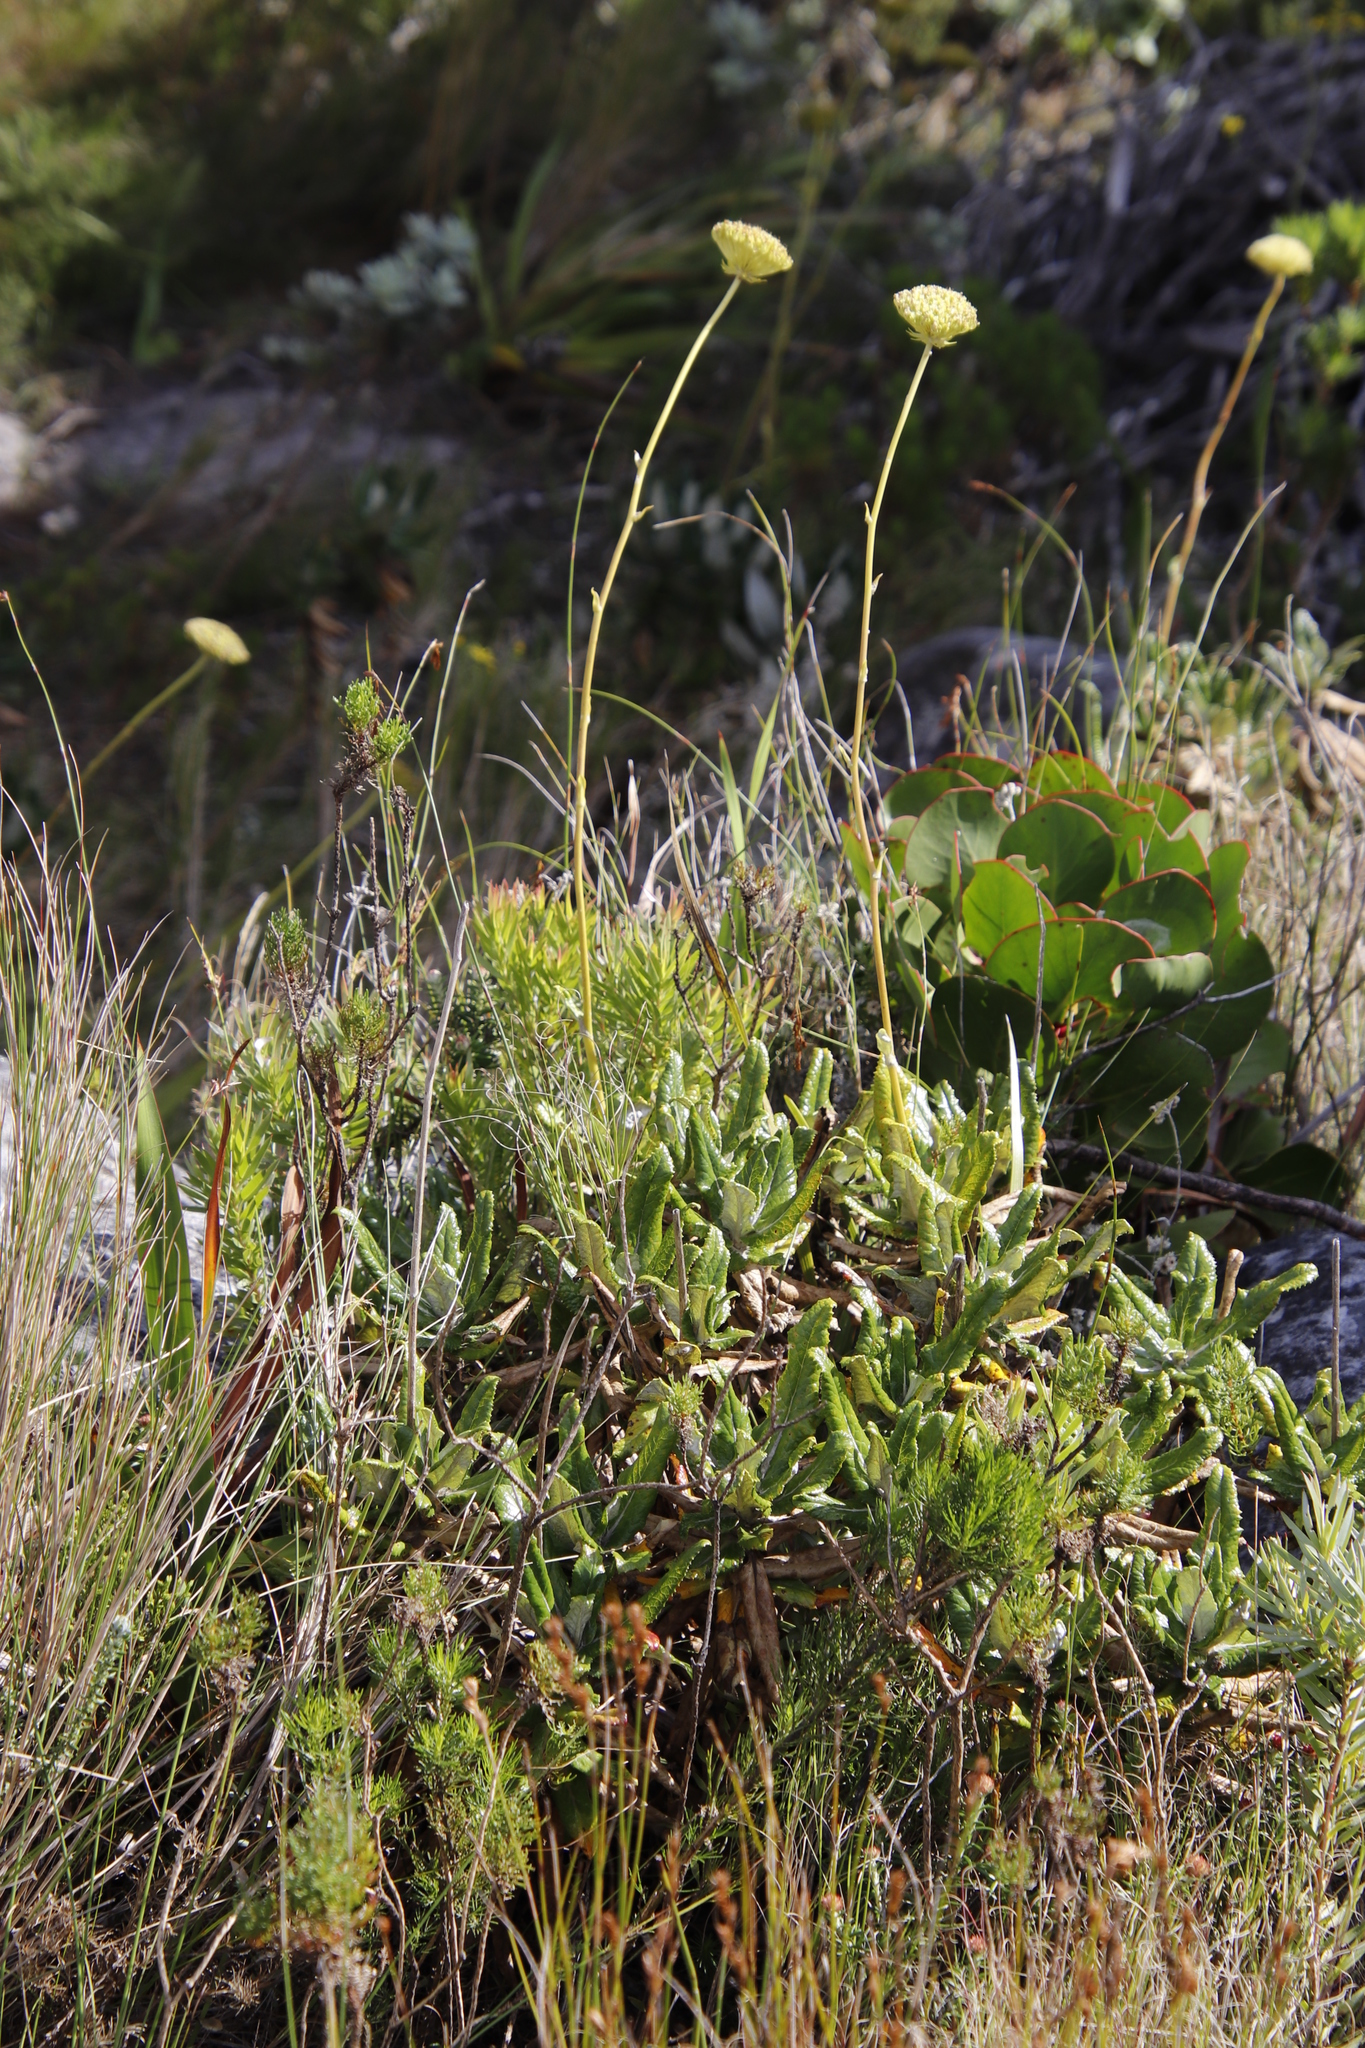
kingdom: Plantae
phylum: Tracheophyta
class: Magnoliopsida
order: Apiales
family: Apiaceae
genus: Hermas
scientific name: Hermas villosa
